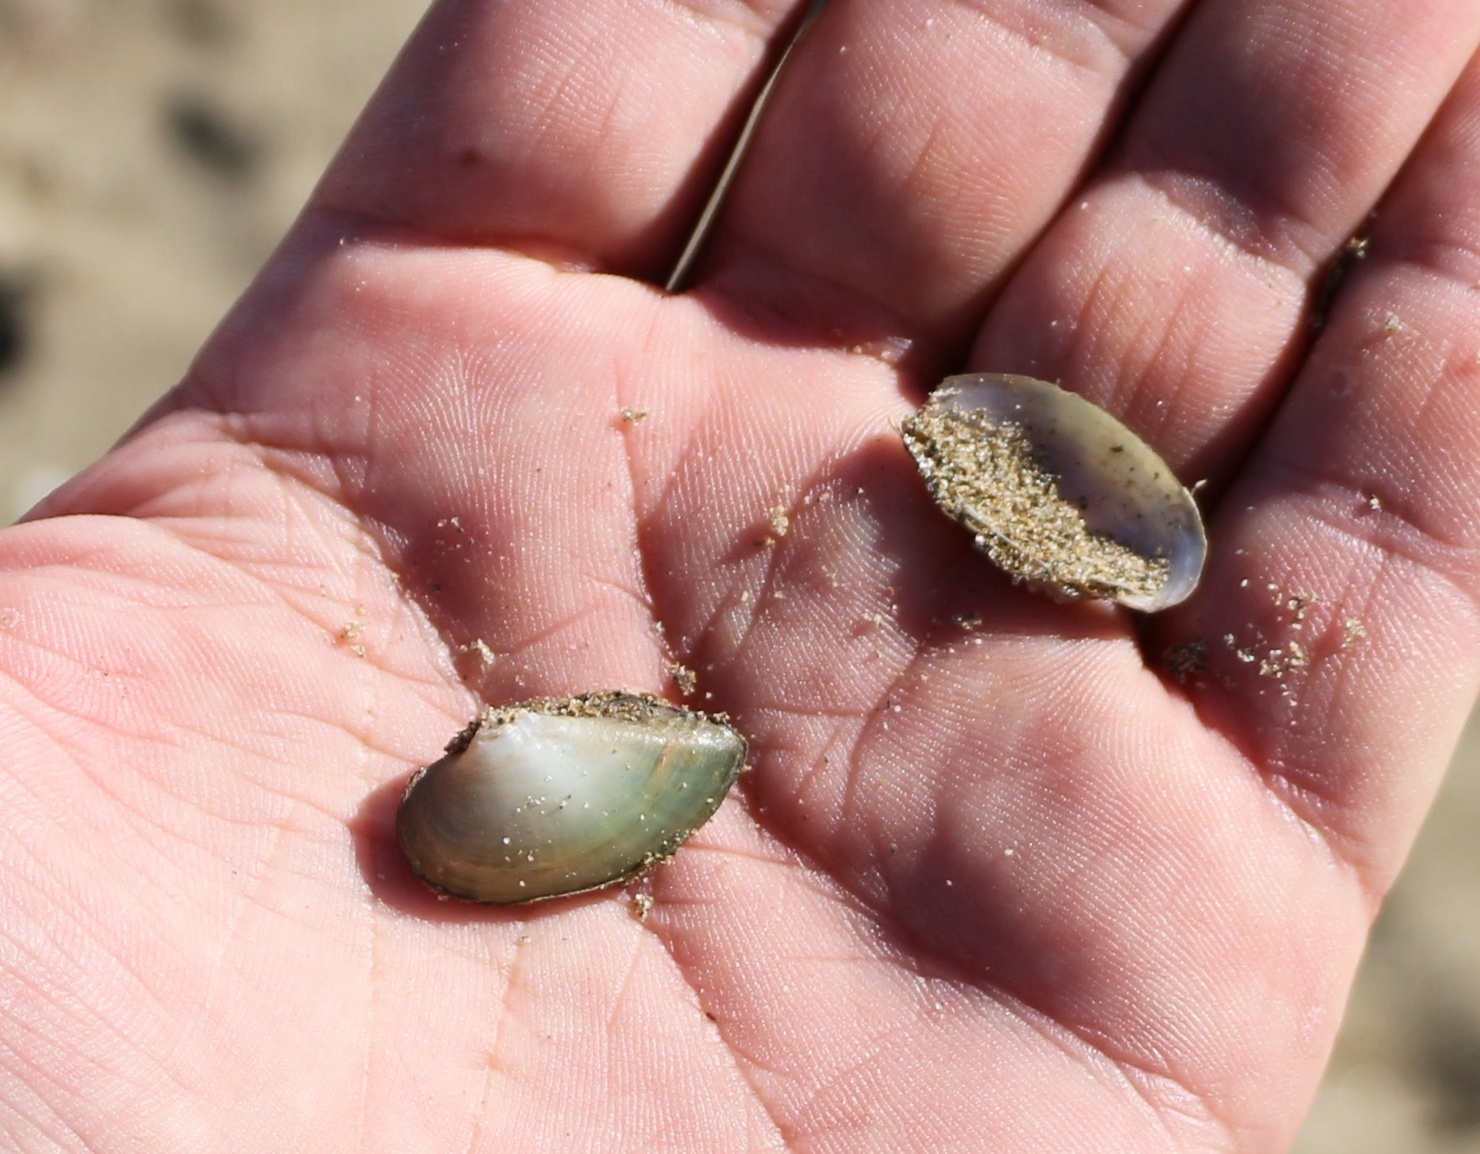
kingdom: Animalia
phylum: Mollusca
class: Bivalvia
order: Unionida
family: Unionidae
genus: Unio
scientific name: Unio tumidus
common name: Swollen river mussel
